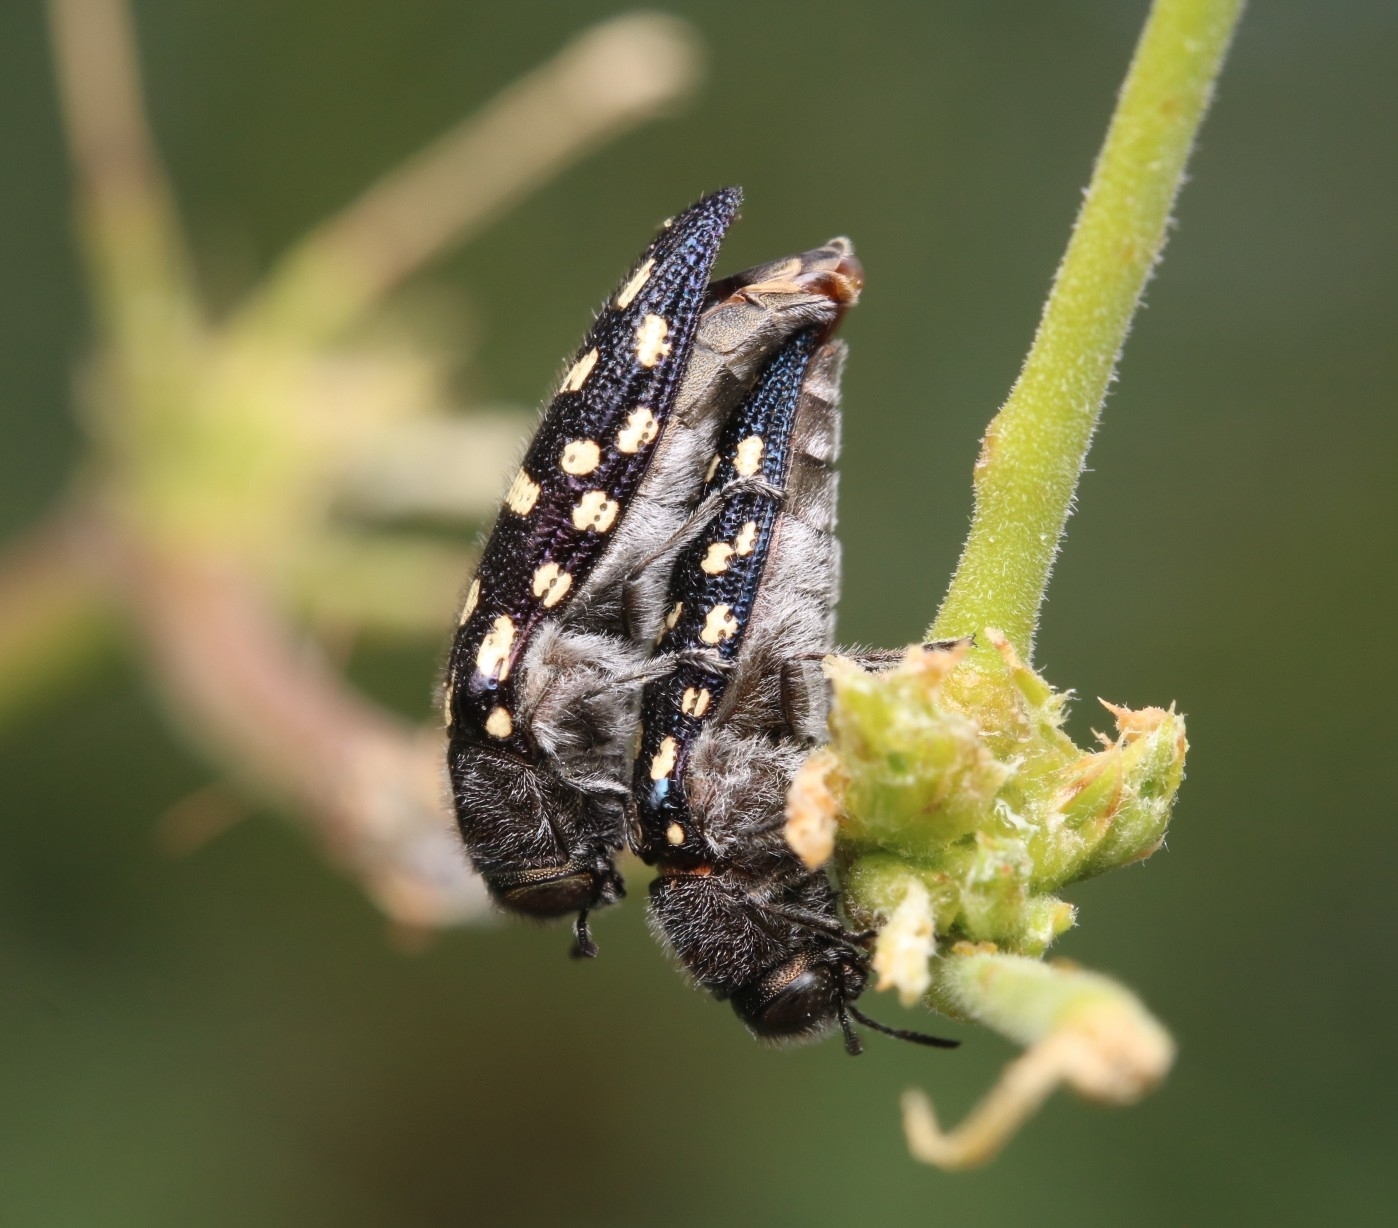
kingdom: Animalia
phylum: Arthropoda
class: Insecta
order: Coleoptera
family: Buprestidae
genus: Acmaeodera
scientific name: Acmaeodera delumbis
